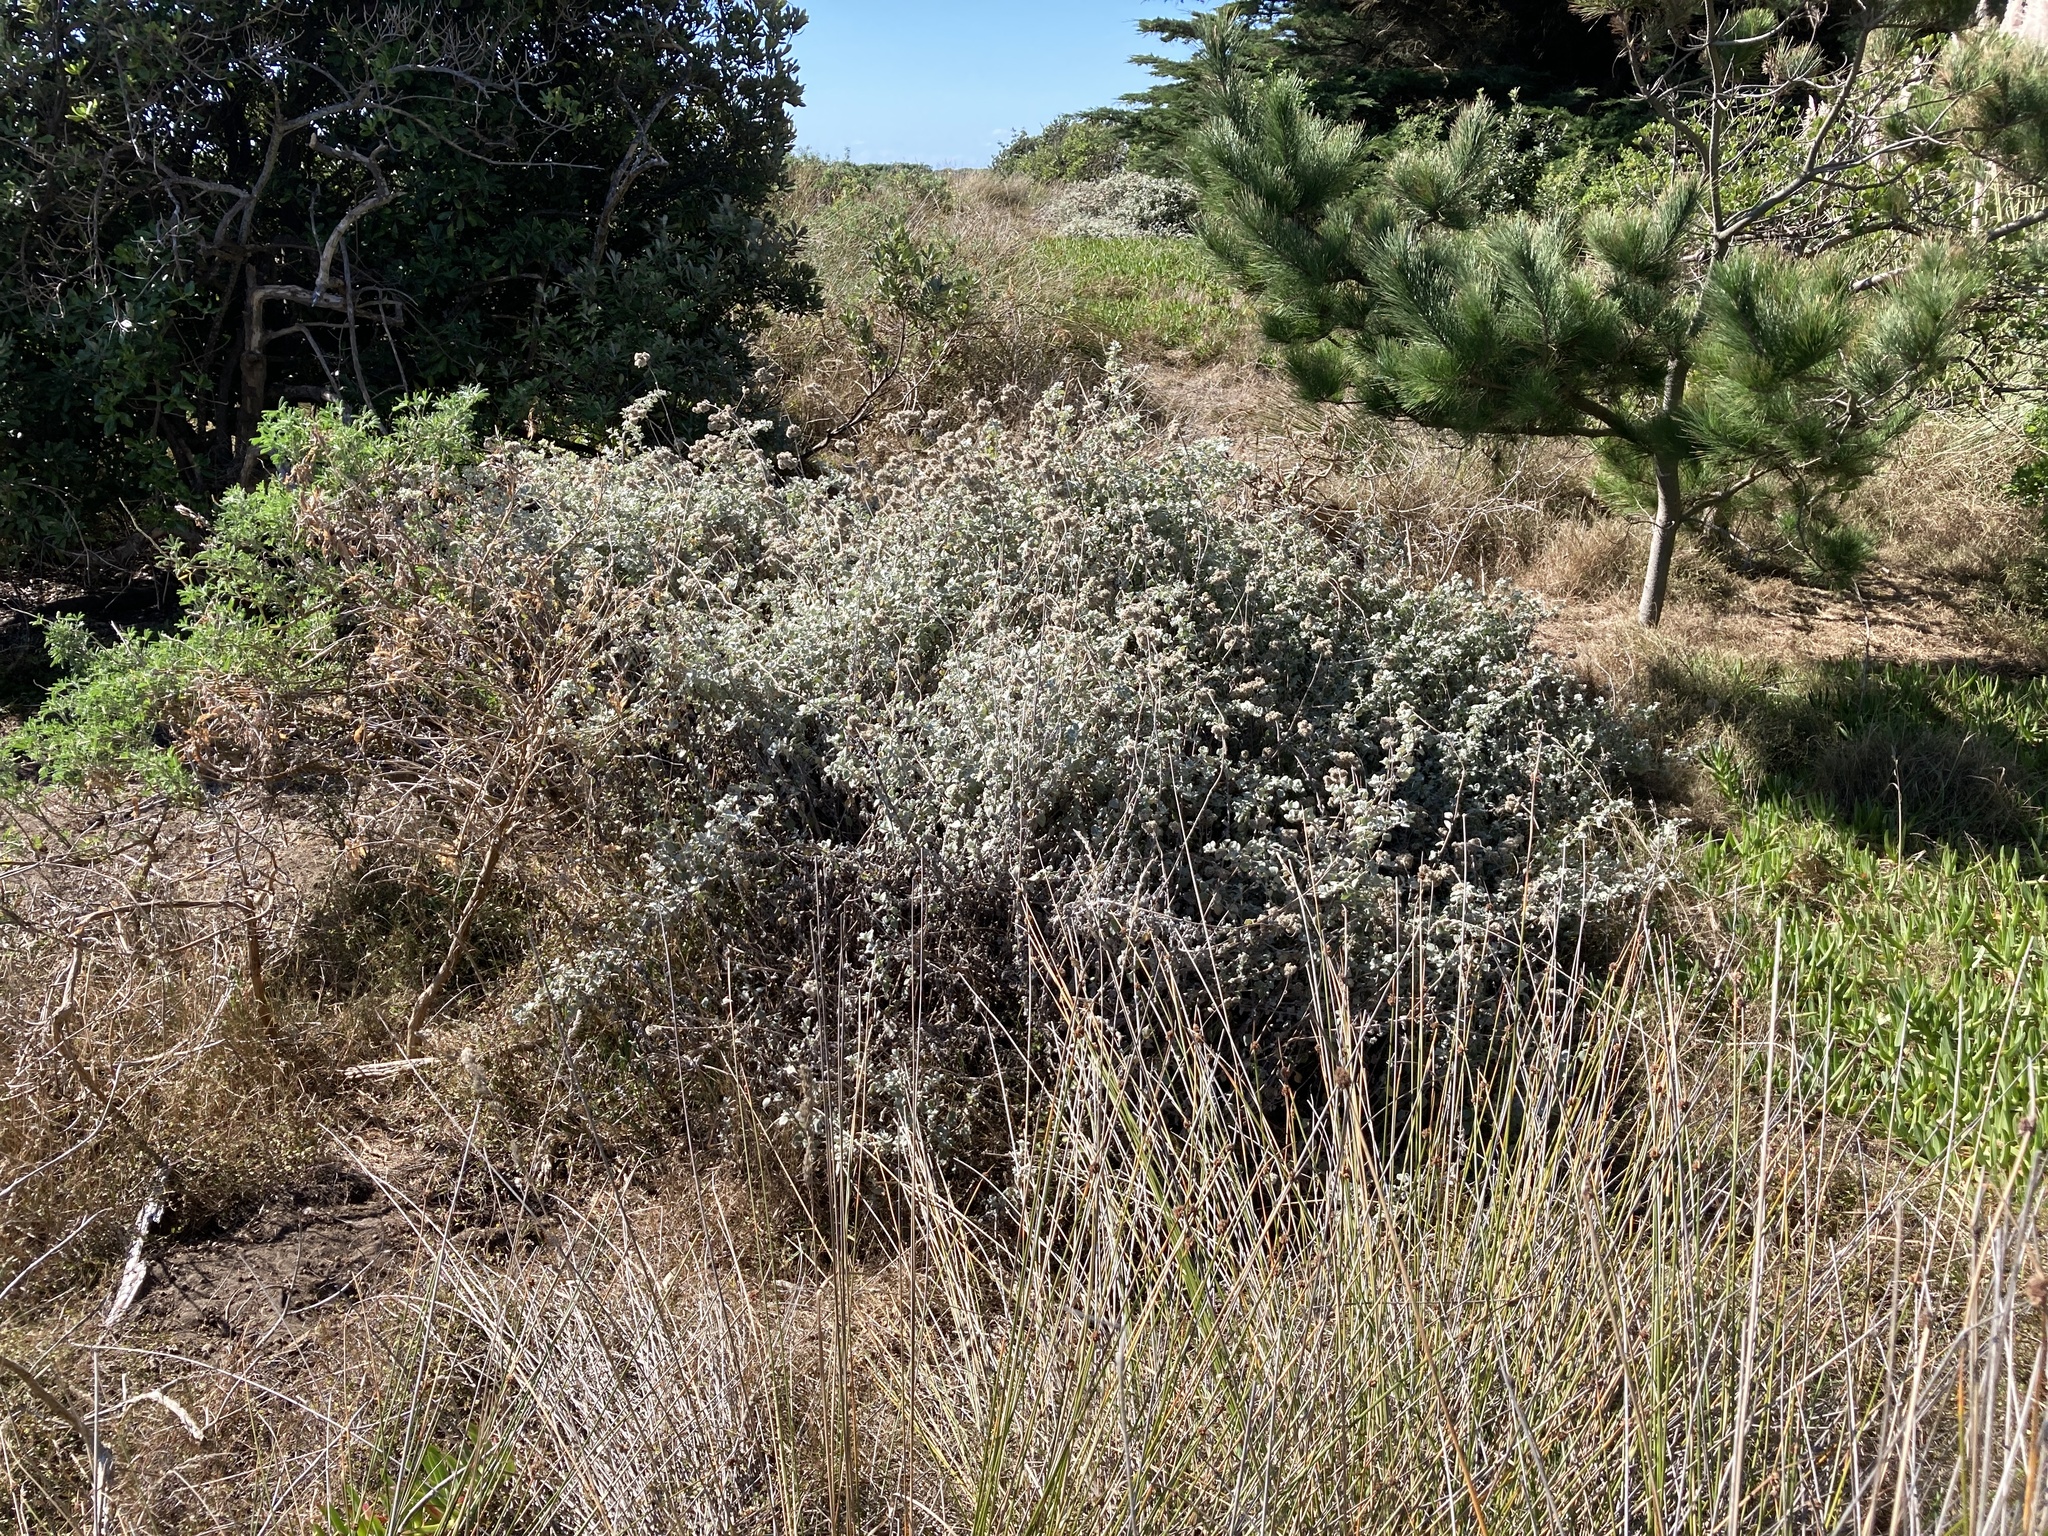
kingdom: Plantae
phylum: Tracheophyta
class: Magnoliopsida
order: Asterales
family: Asteraceae
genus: Helichrysum
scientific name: Helichrysum petiolare
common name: Licorice-plant
